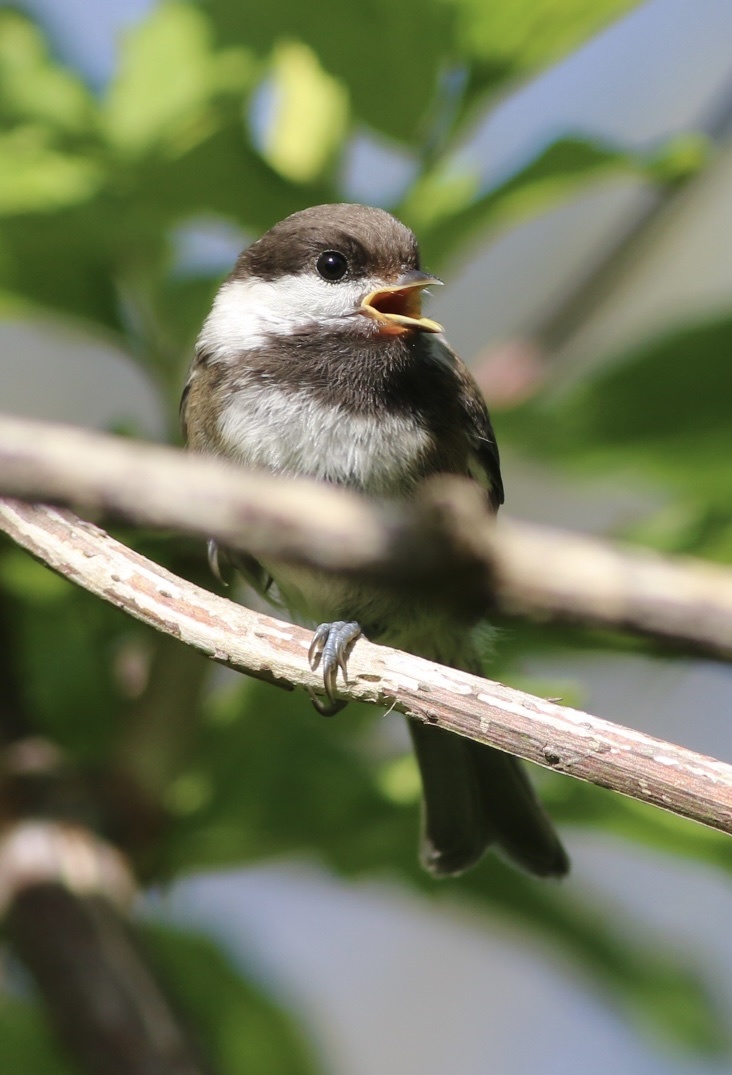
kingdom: Animalia
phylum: Chordata
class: Aves
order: Passeriformes
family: Paridae
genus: Poecile
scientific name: Poecile rufescens
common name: Chestnut-backed chickadee
